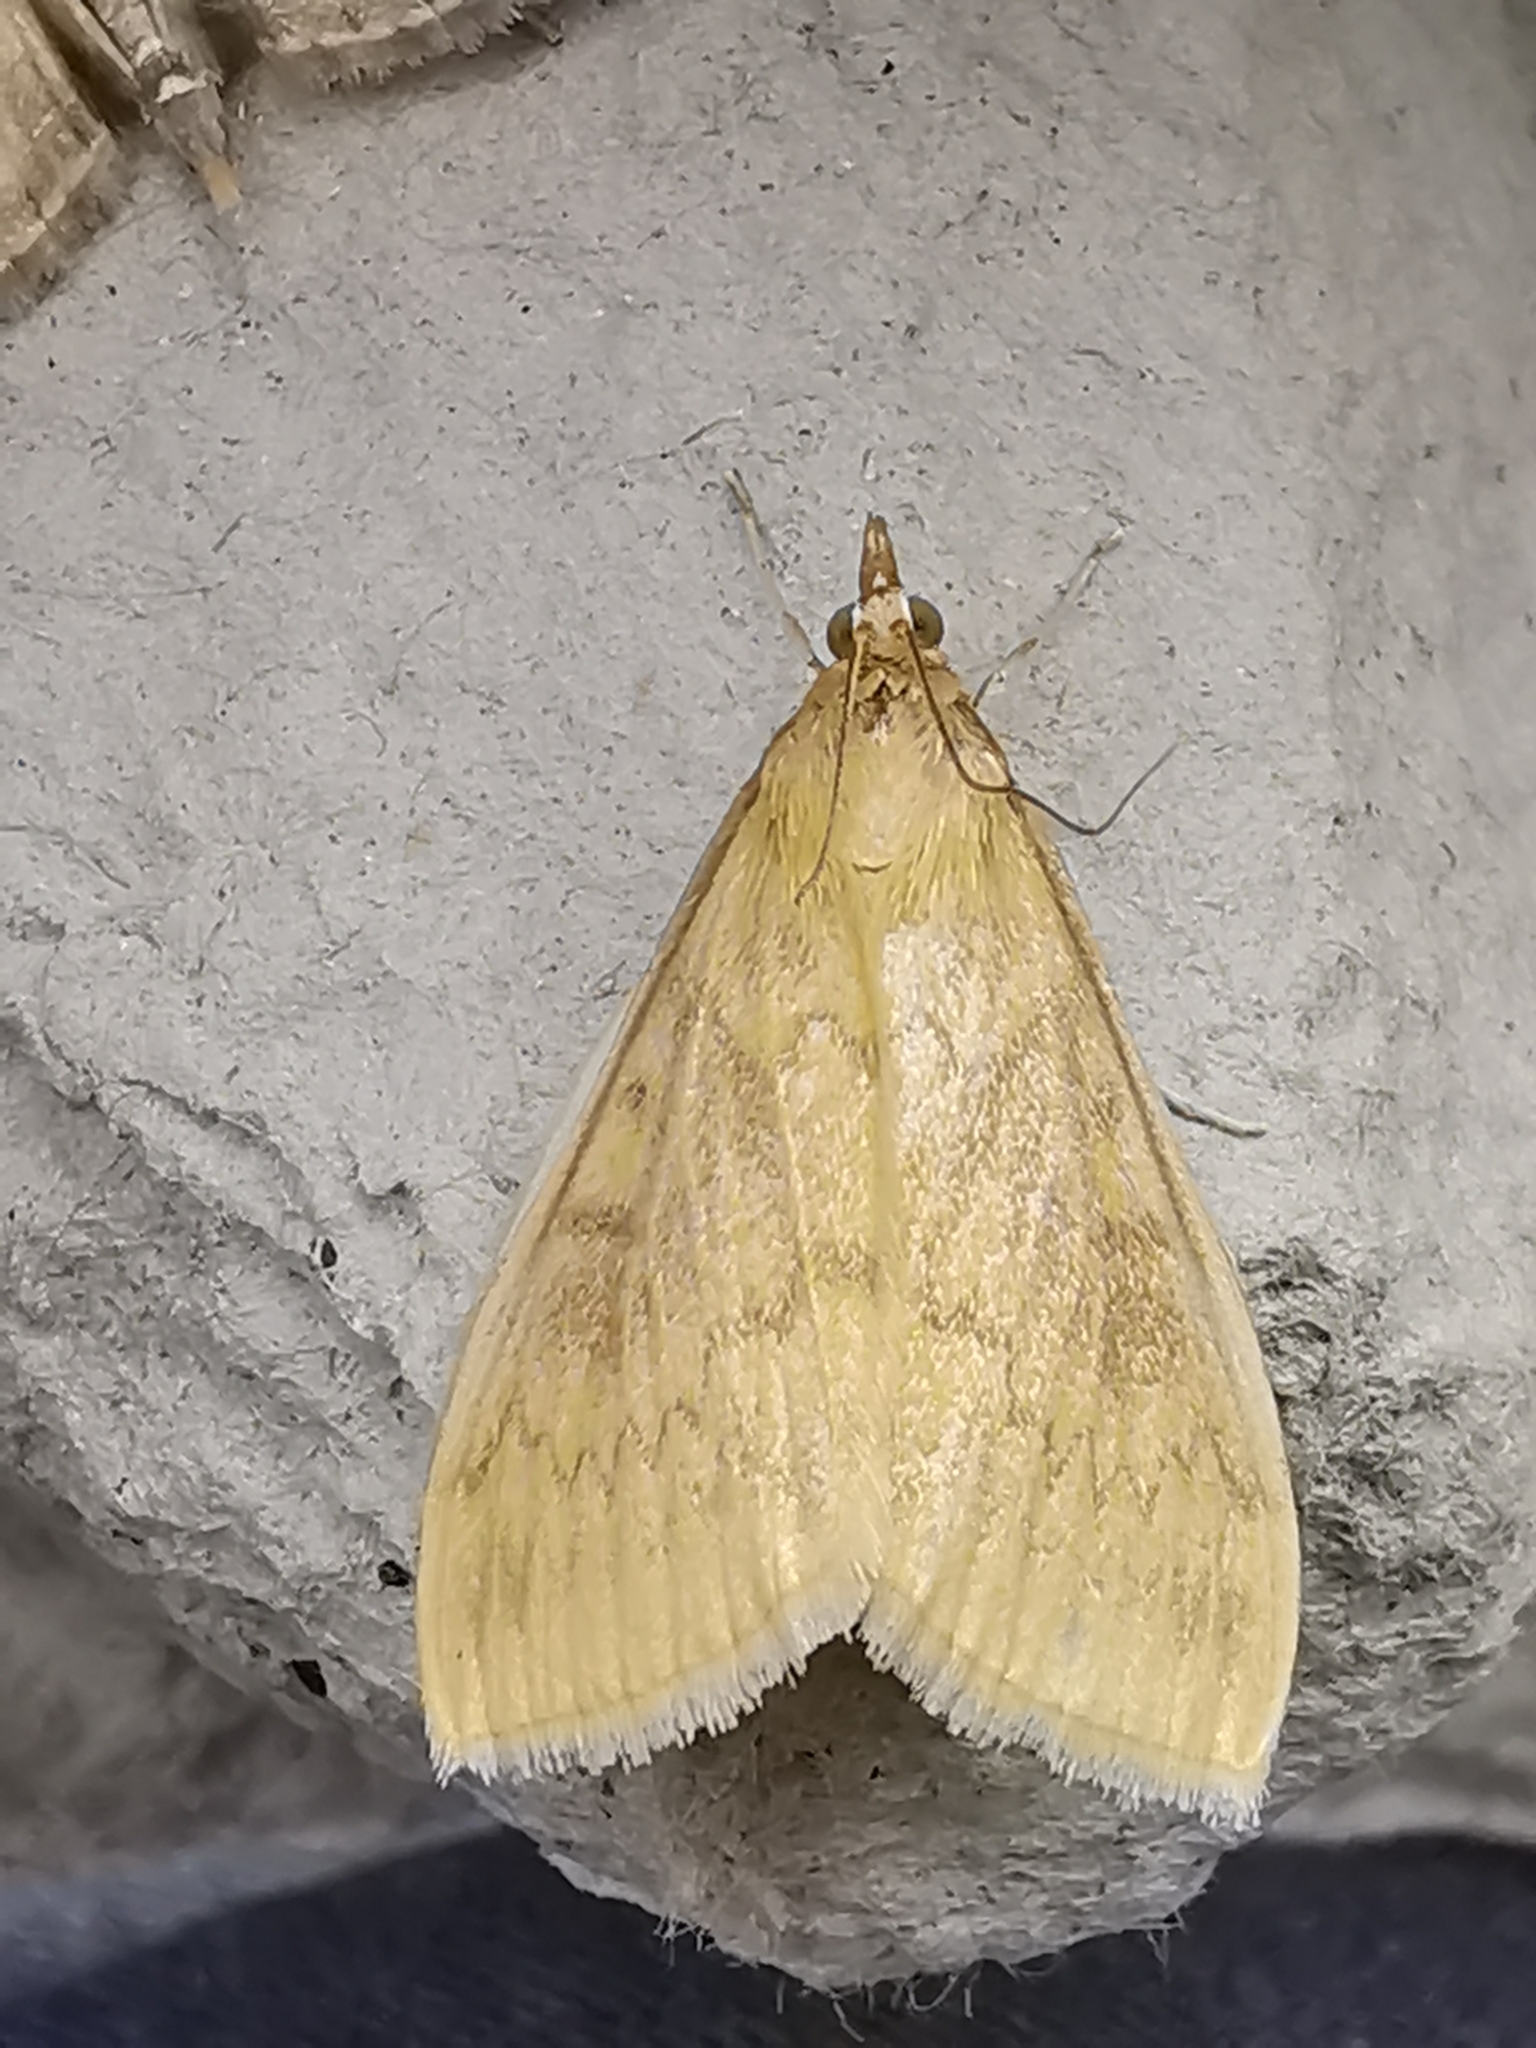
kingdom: Animalia
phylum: Arthropoda
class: Insecta
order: Lepidoptera
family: Crambidae
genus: Ostrinia
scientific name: Ostrinia nubilalis
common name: European corn borer
